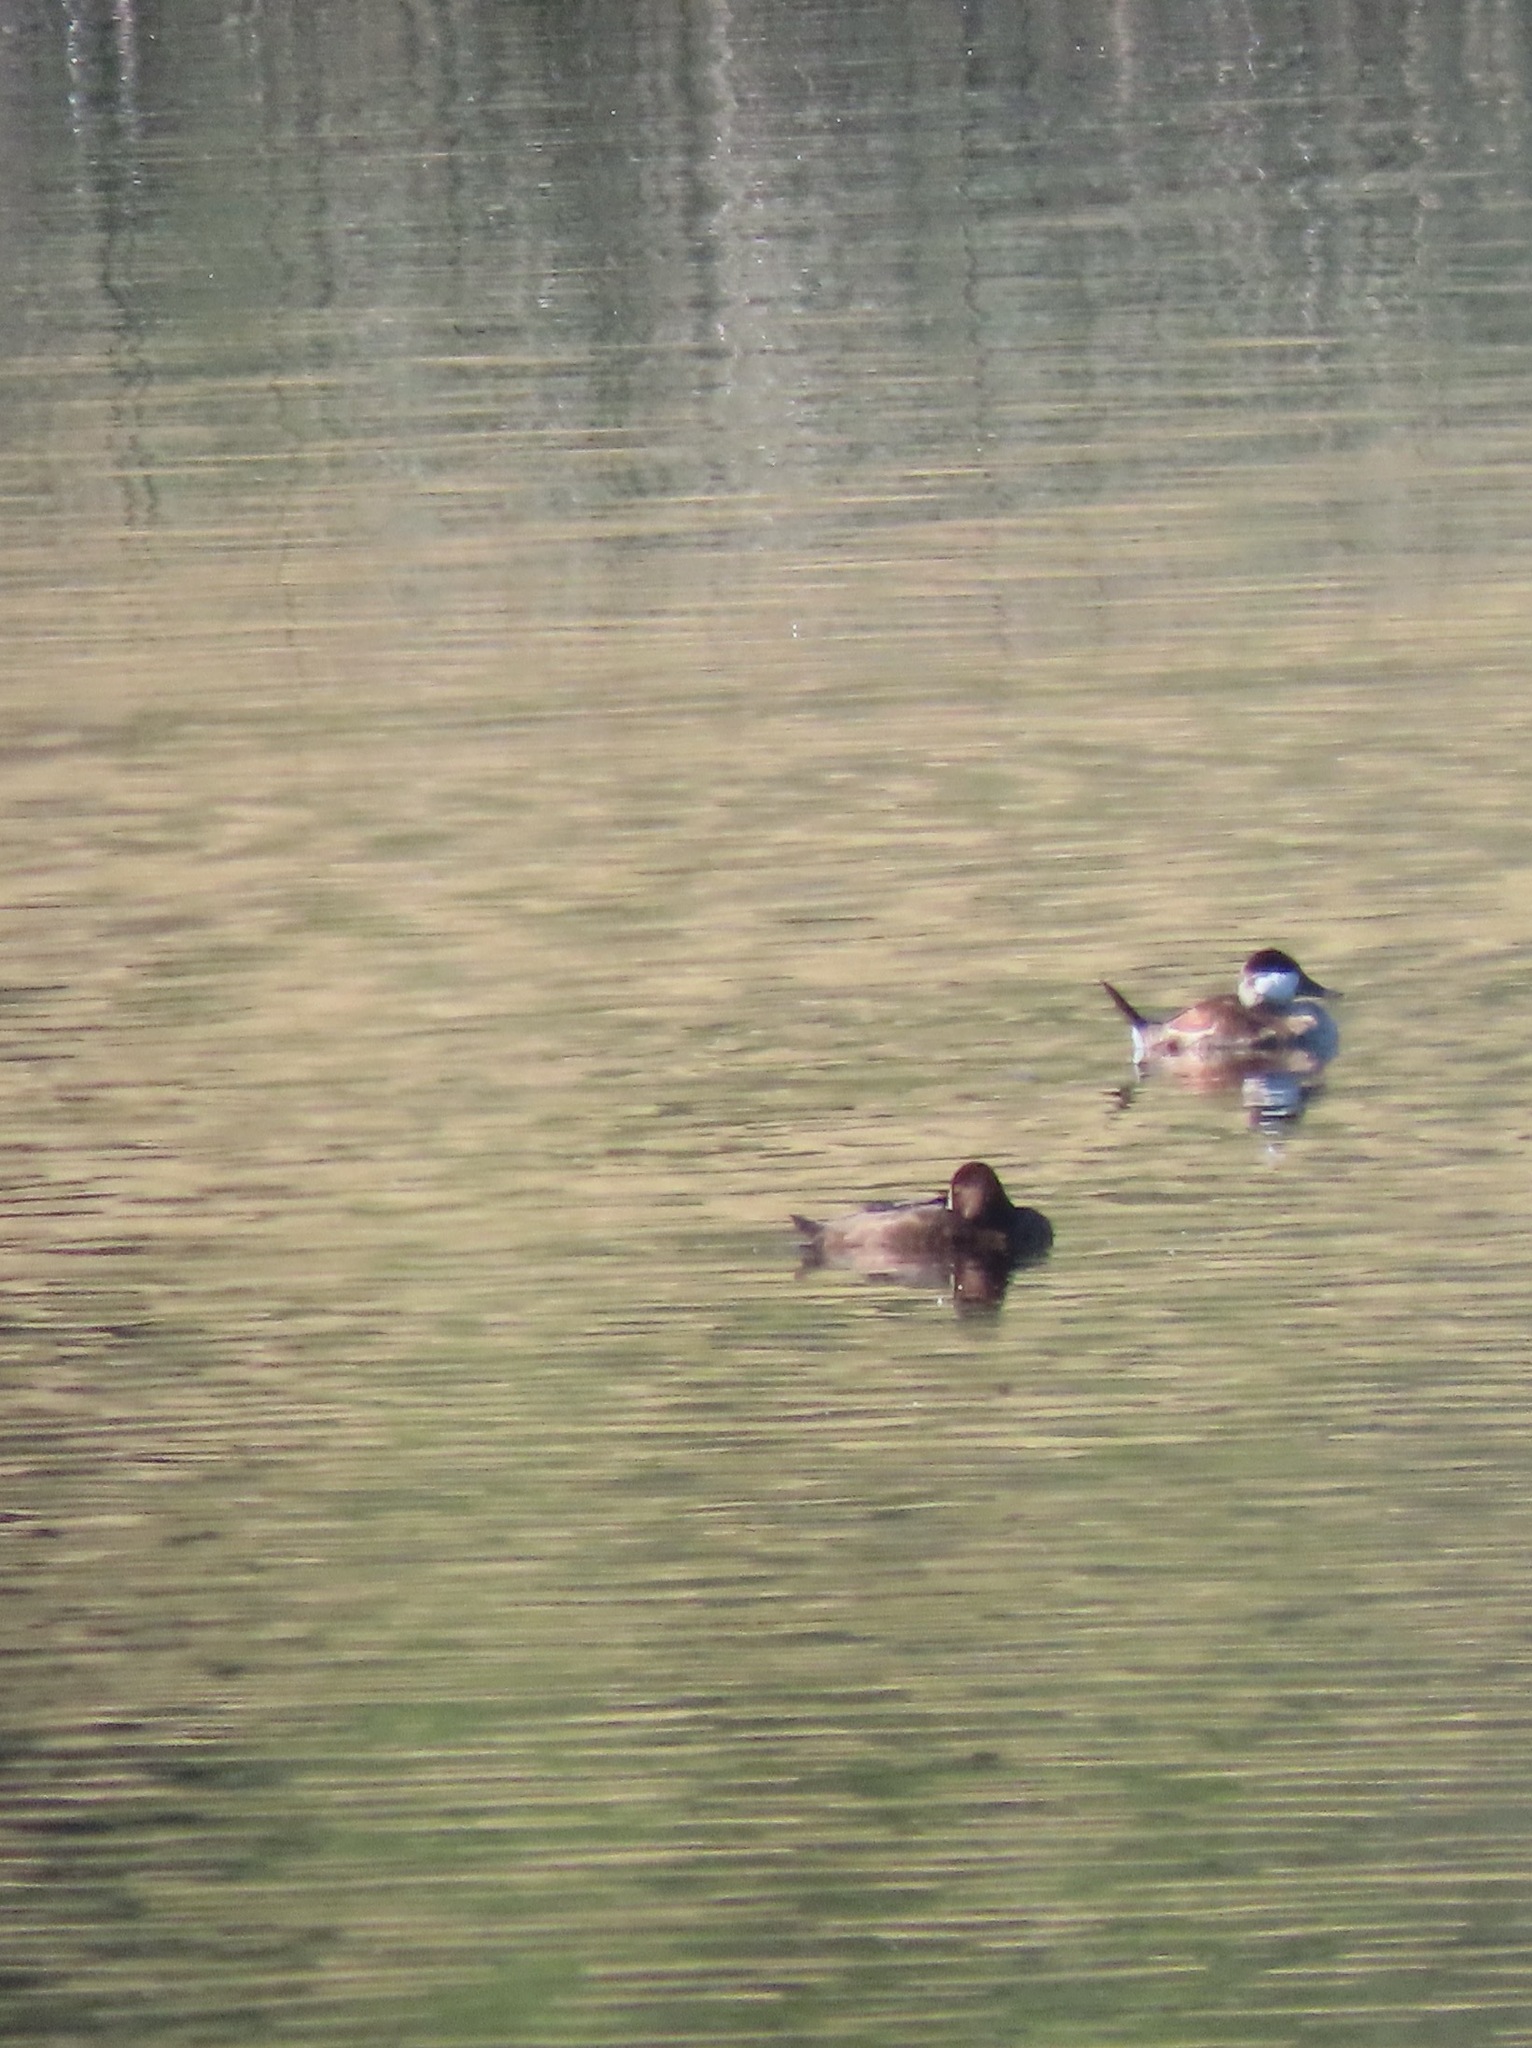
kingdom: Animalia
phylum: Chordata
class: Aves
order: Anseriformes
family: Anatidae
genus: Oxyura
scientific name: Oxyura jamaicensis
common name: Ruddy duck
